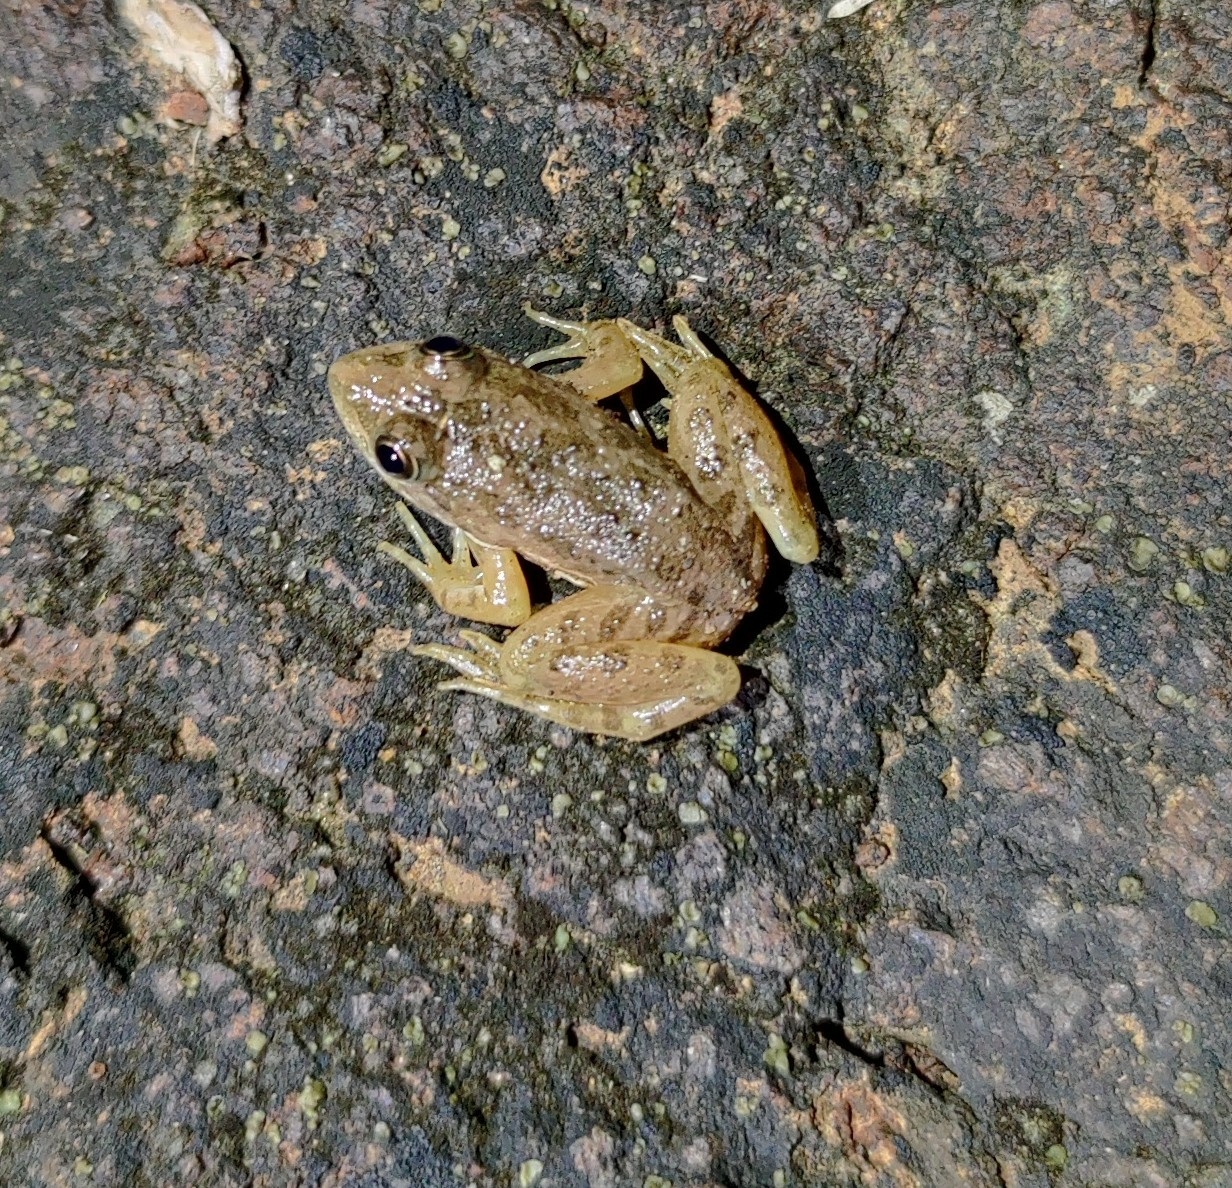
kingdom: Animalia
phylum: Chordata
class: Amphibia
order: Anura
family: Dicroglossidae
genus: Euphlyctis
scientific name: Euphlyctis cyanophlyctis
